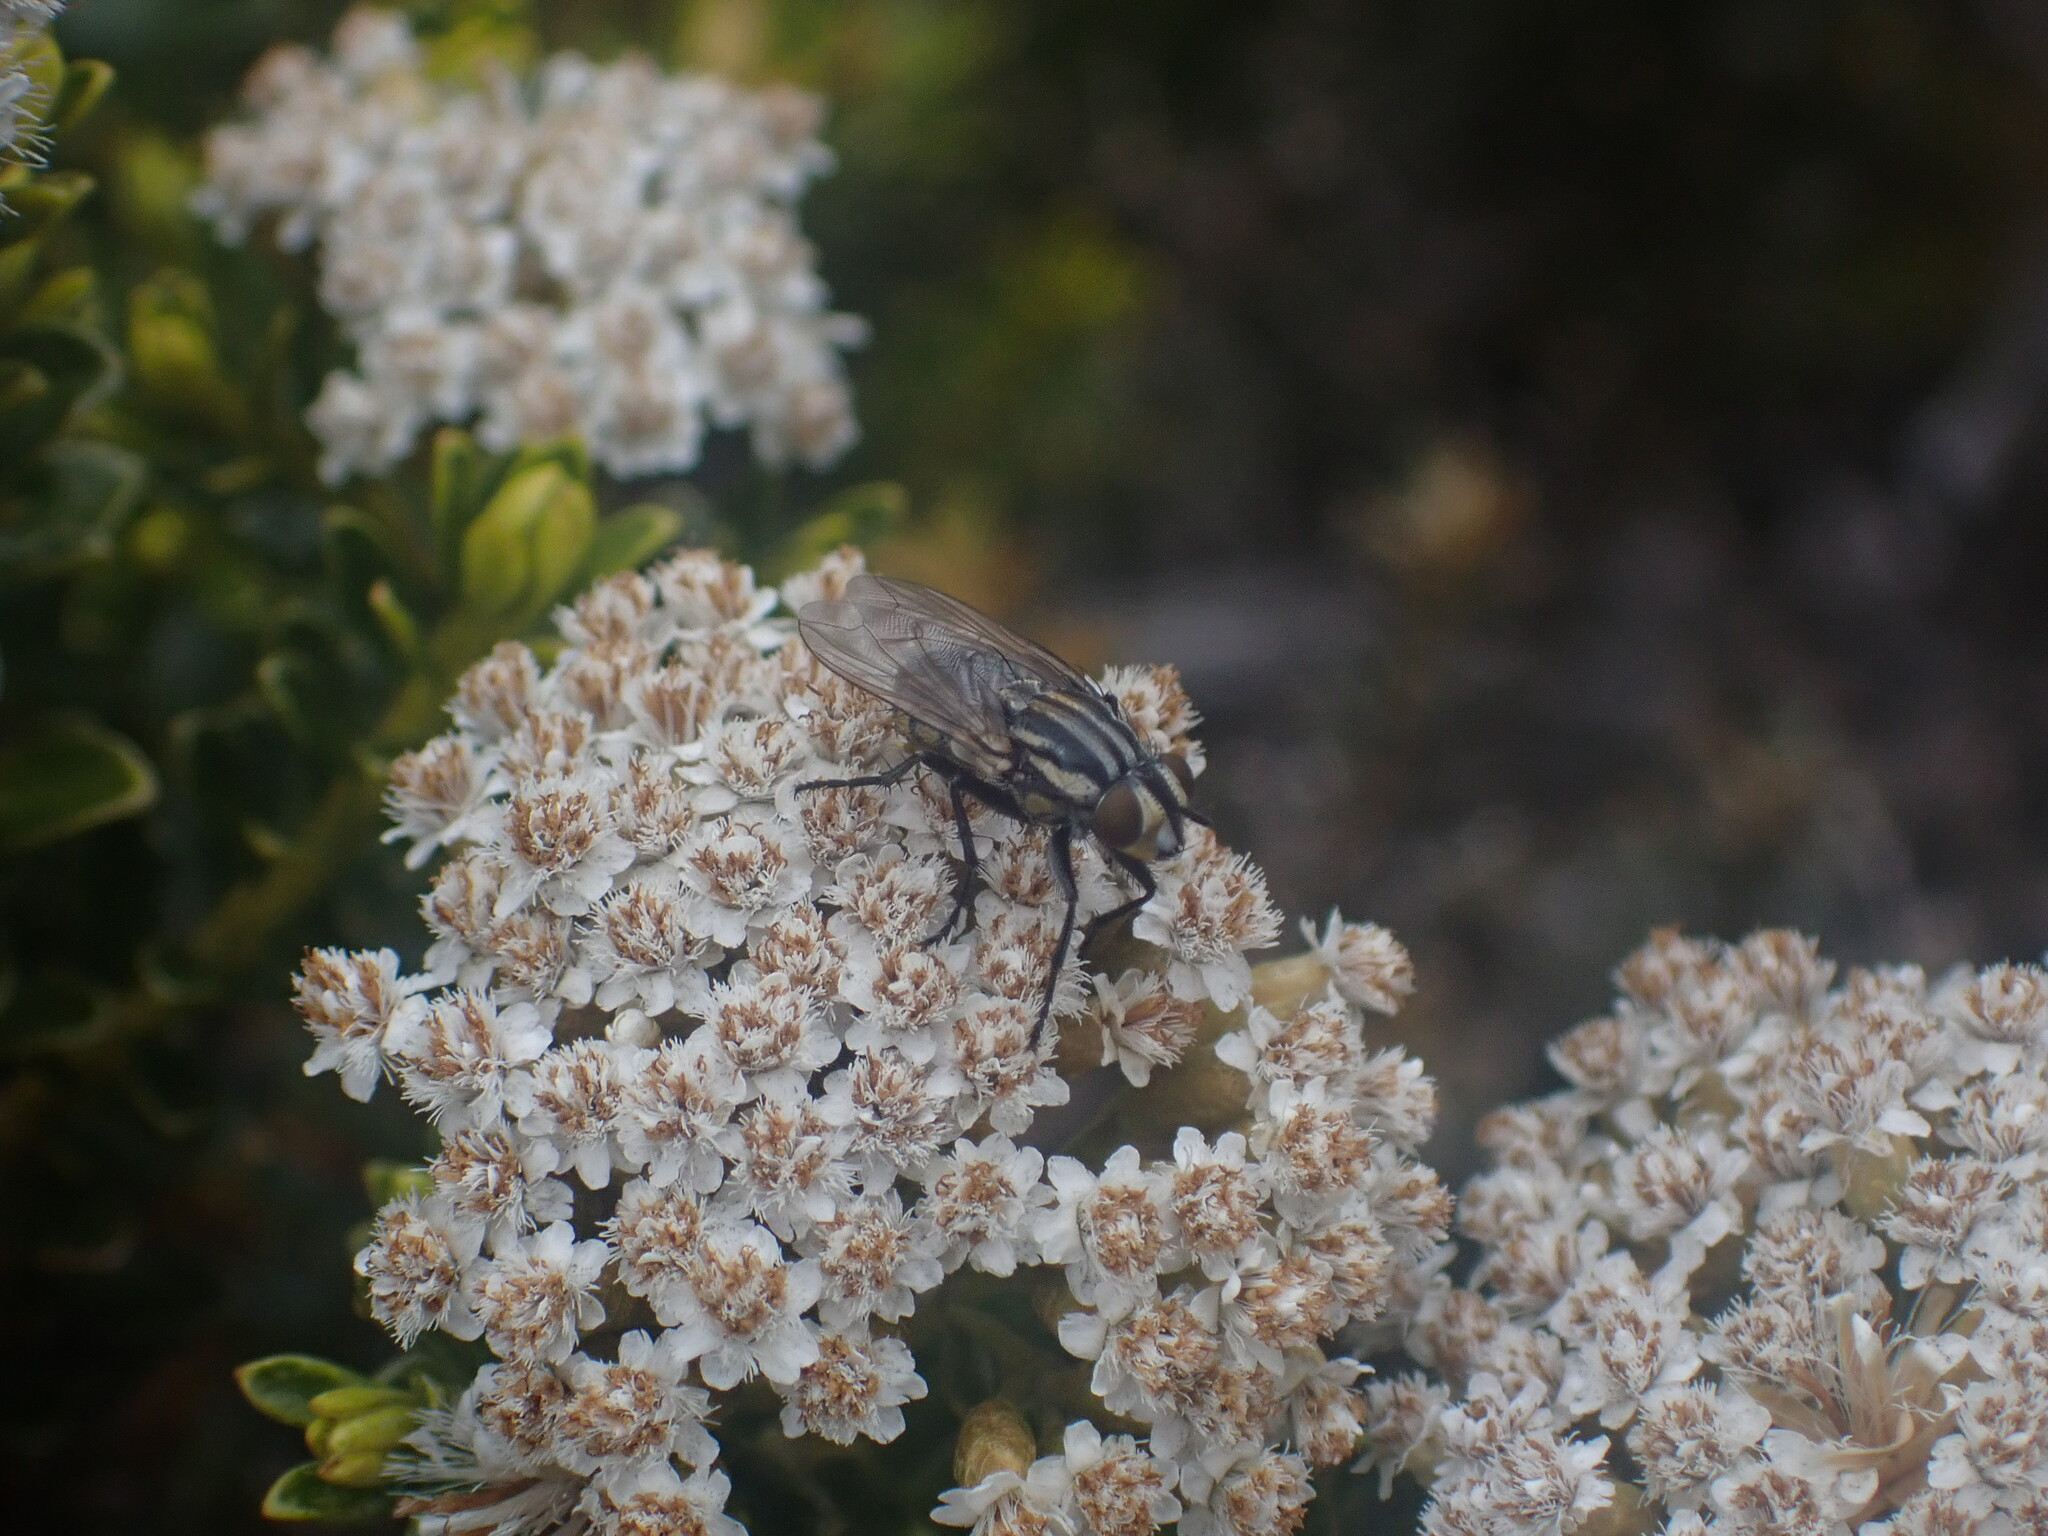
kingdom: Animalia
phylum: Arthropoda
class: Insecta
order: Diptera
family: Sarcophagidae
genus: Oxysarcodexia
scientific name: Oxysarcodexia varia
